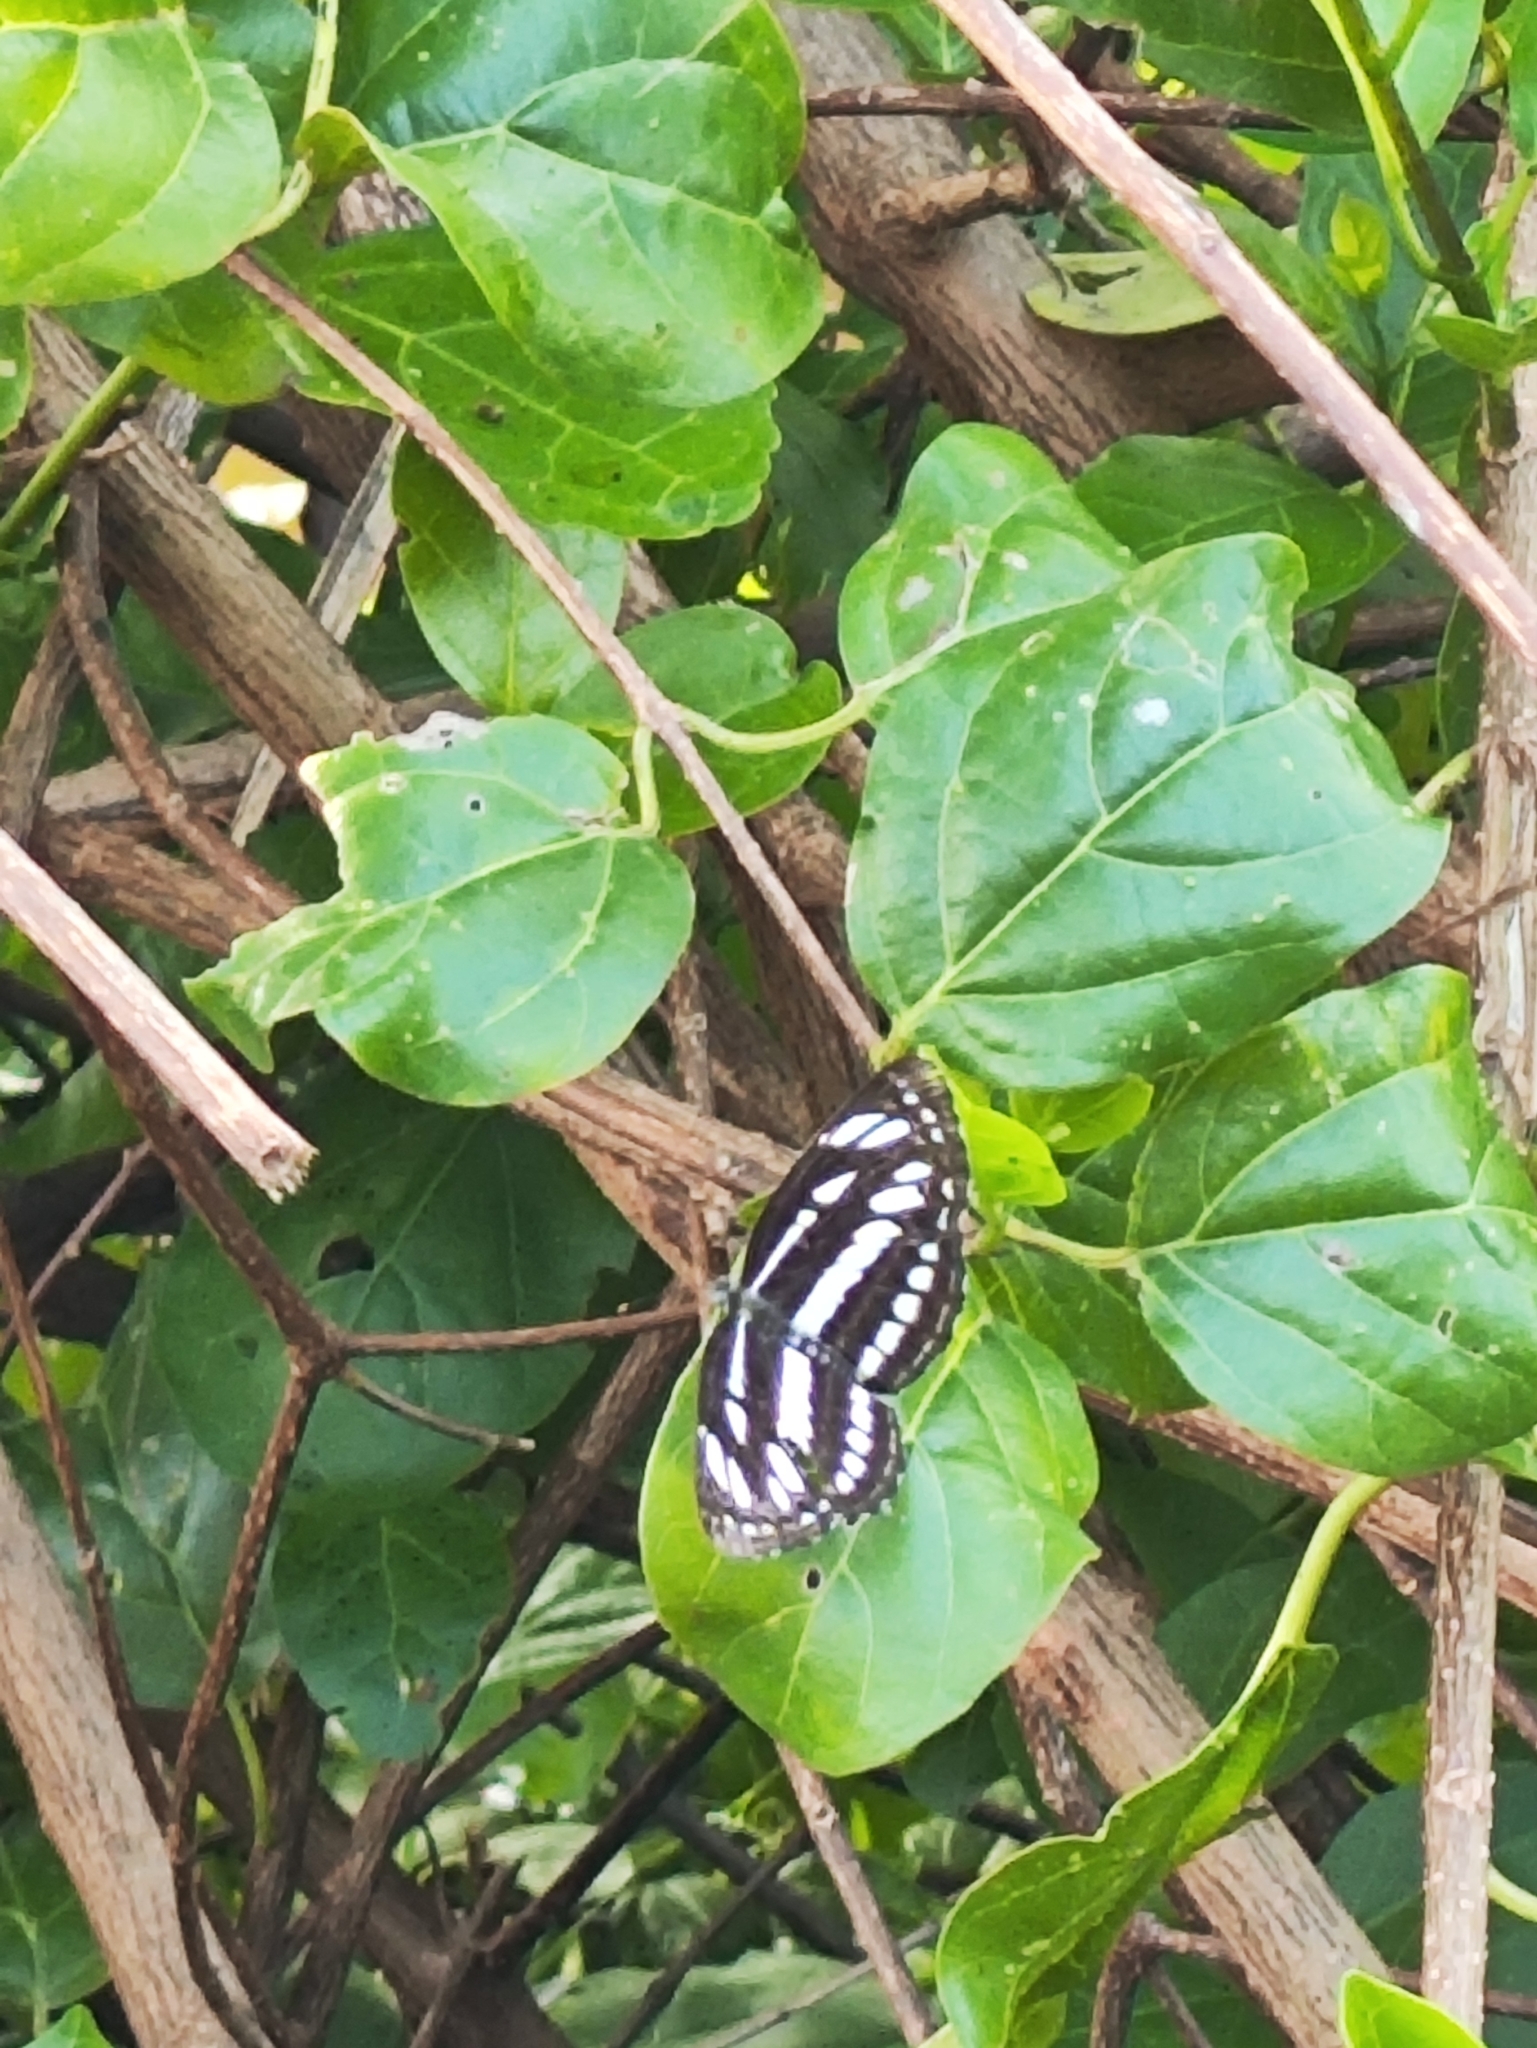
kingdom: Animalia
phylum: Arthropoda
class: Insecta
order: Lepidoptera
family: Nymphalidae
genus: Neptis
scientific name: Neptis hylas
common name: Common sailer
